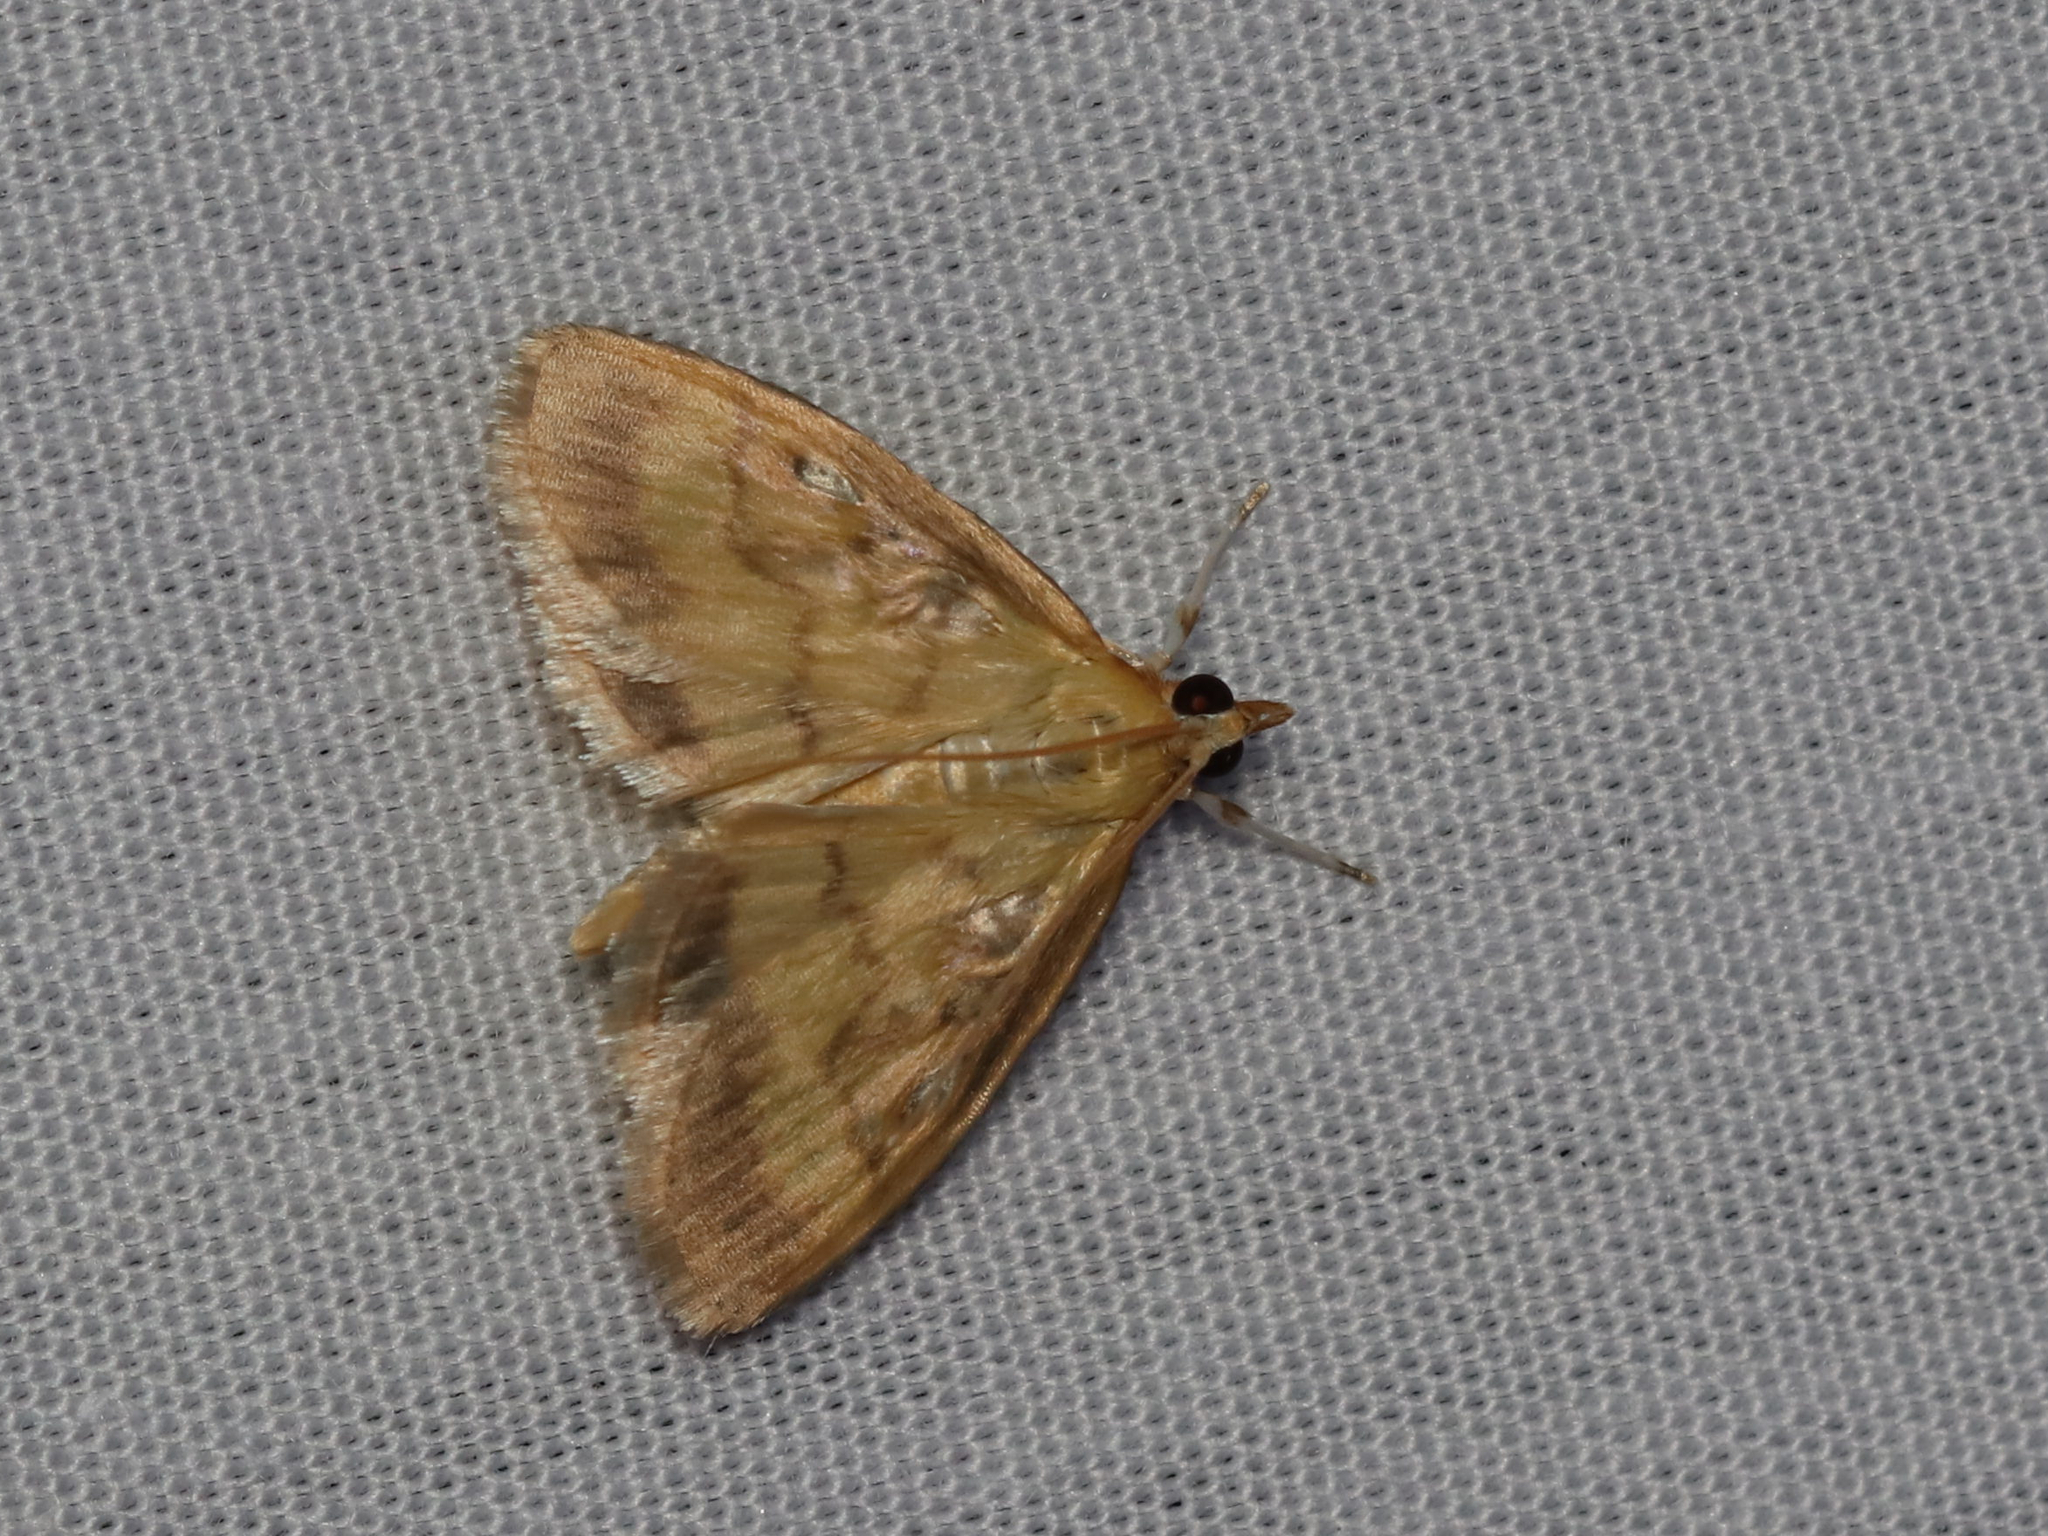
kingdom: Animalia
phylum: Arthropoda
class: Insecta
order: Lepidoptera
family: Crambidae
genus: Crocidophora
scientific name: Crocidophora tuberculalis
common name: Pale-winged crocidiphora moth
